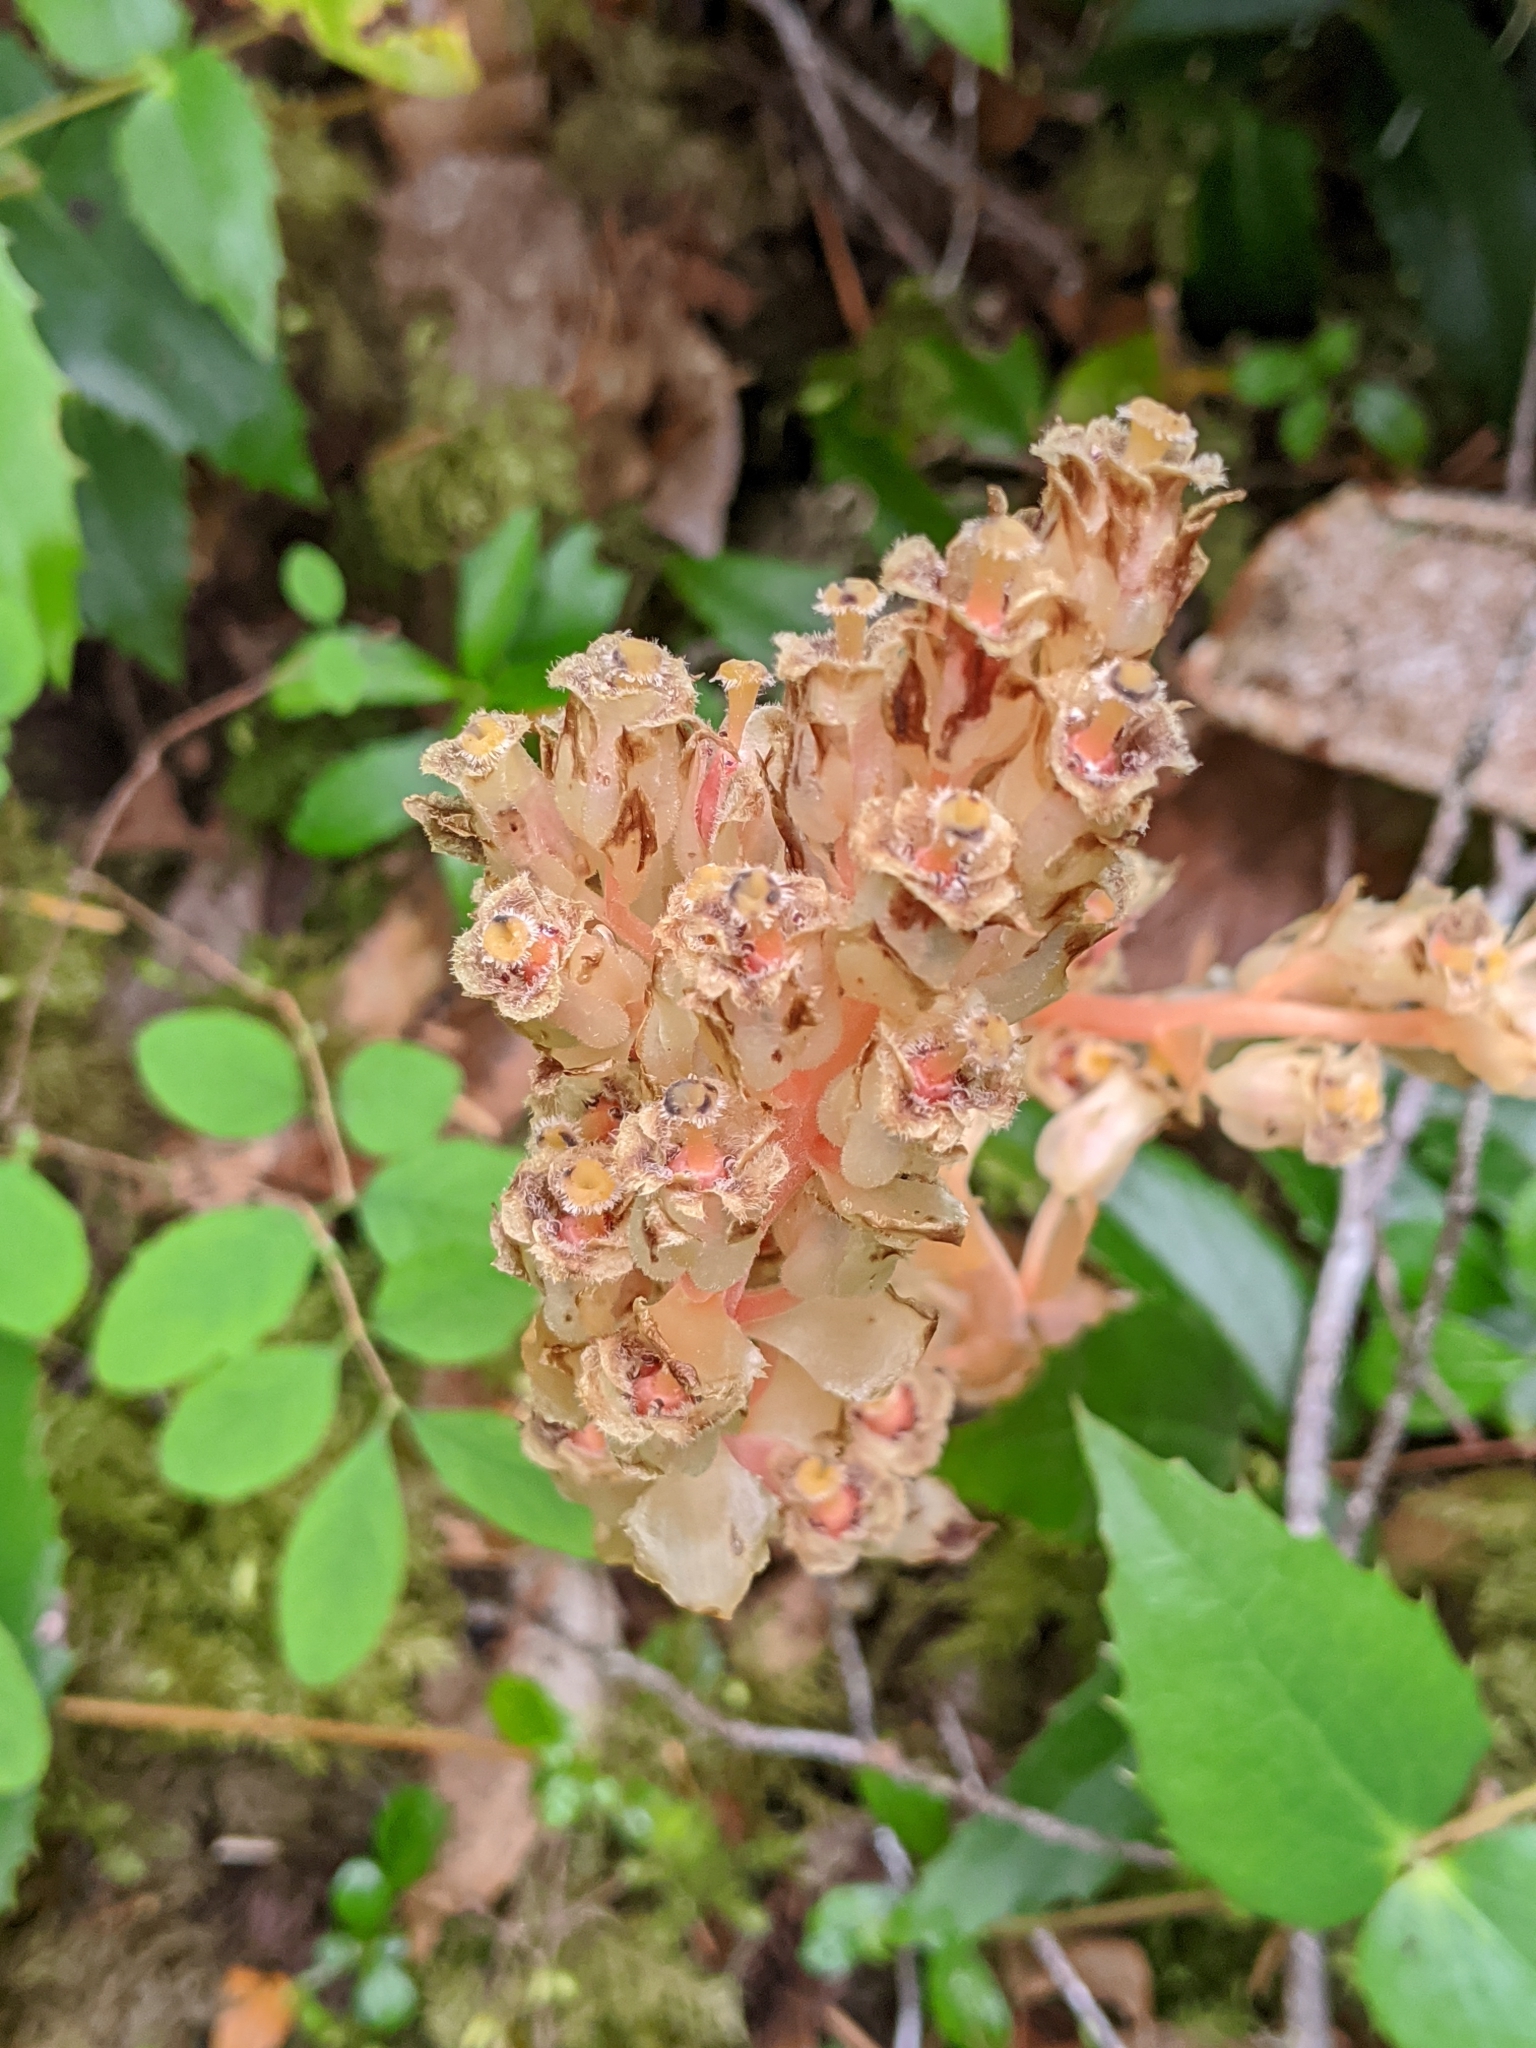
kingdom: Plantae
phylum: Tracheophyta
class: Magnoliopsida
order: Ericales
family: Ericaceae
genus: Hypopitys
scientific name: Hypopitys monotropa
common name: Yellow bird's-nest
